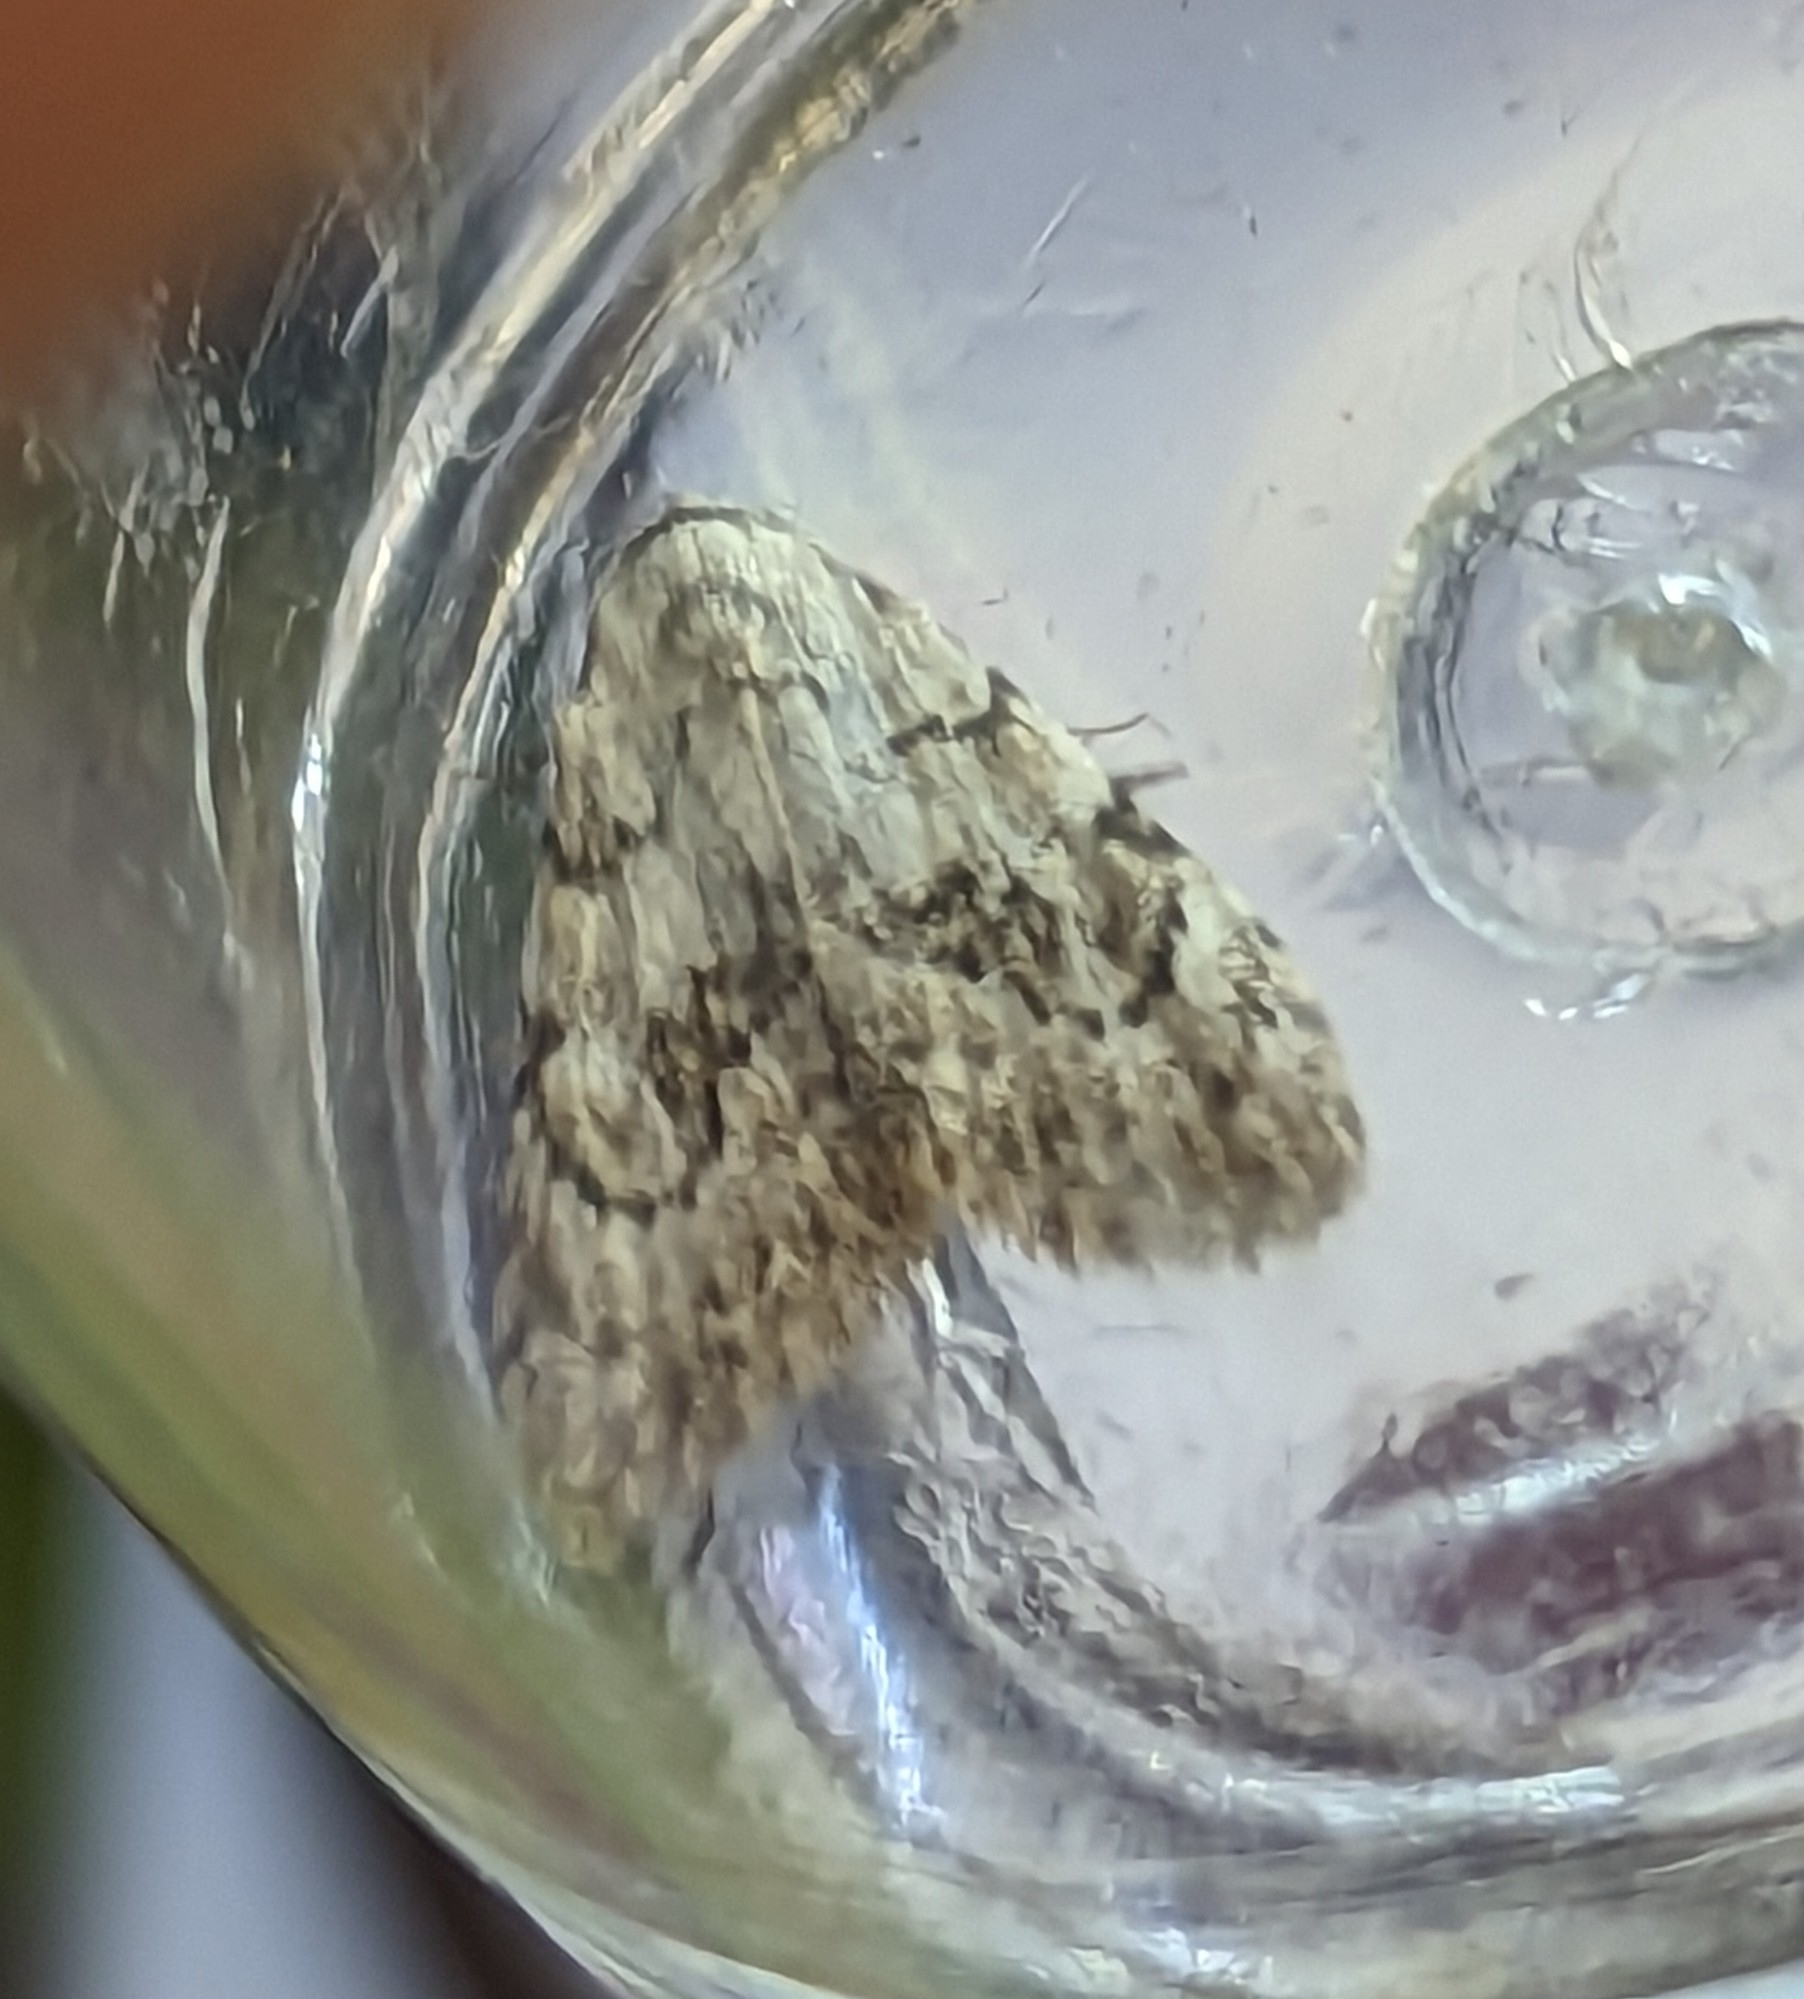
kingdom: Animalia
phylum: Arthropoda
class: Insecta
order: Lepidoptera
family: Nolidae
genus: Nola
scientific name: Nola confusalis
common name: Least black arches
